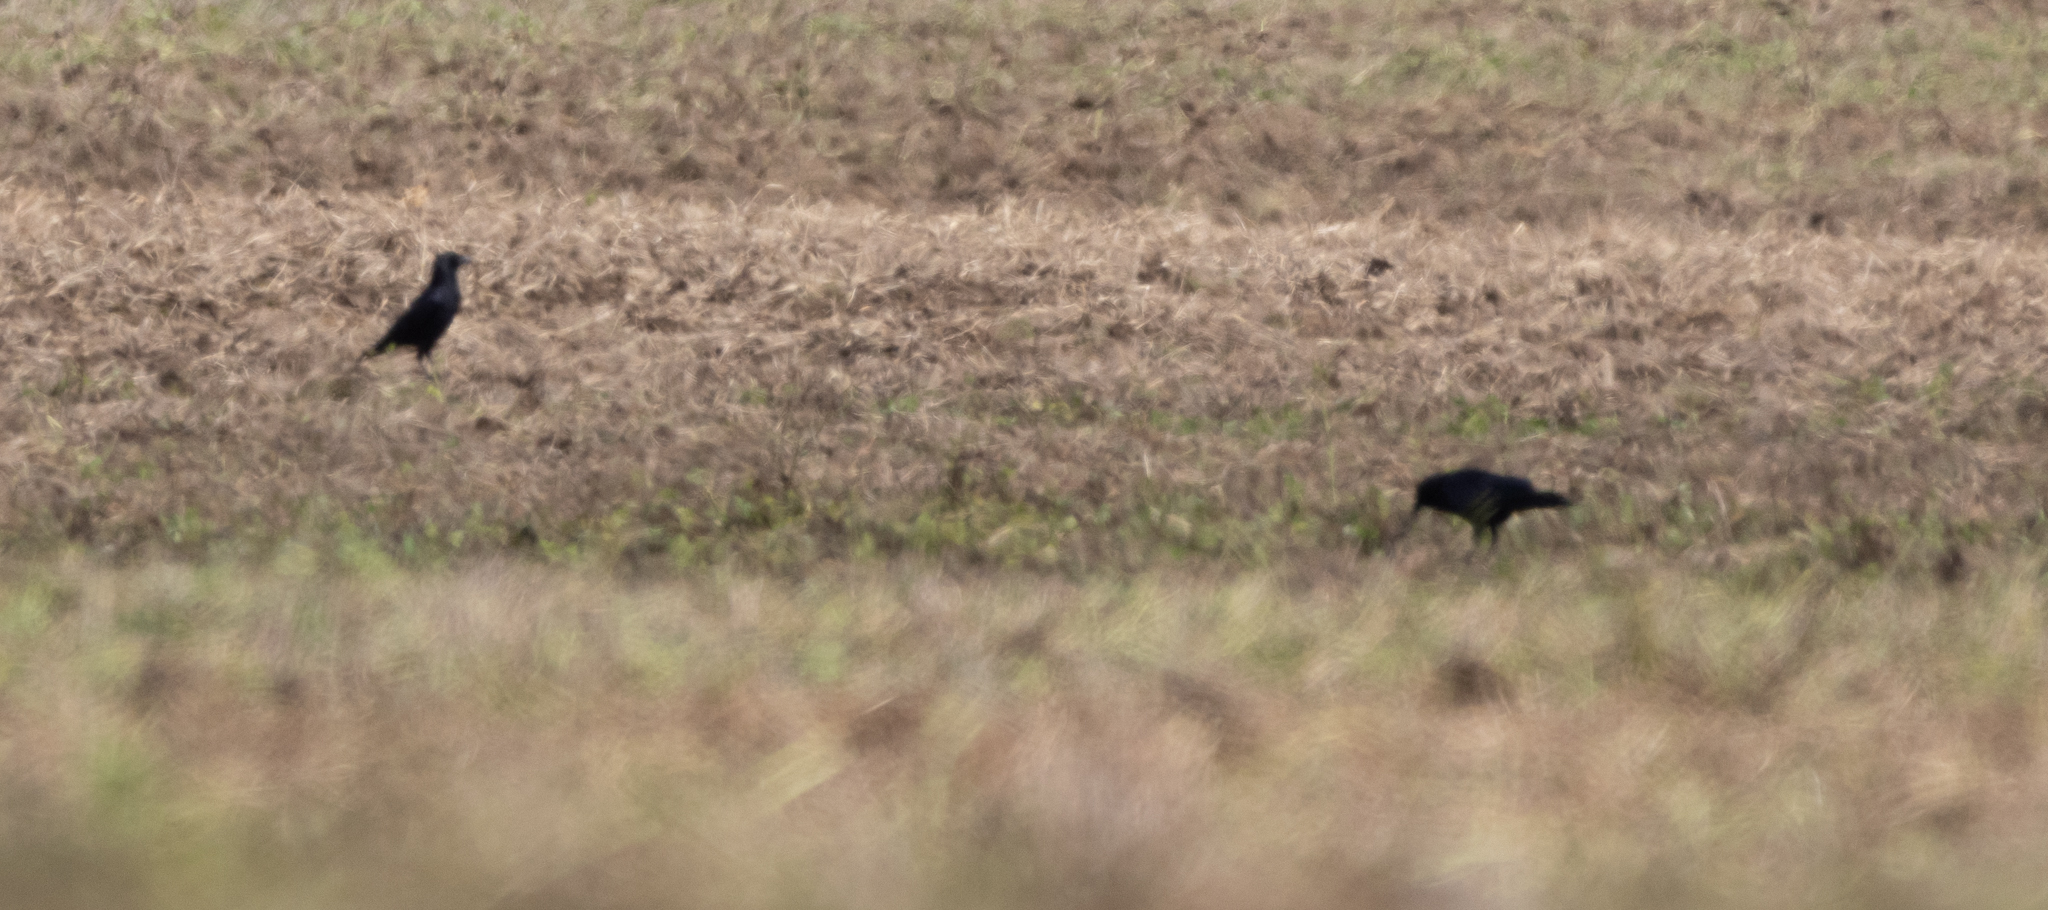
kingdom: Animalia
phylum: Chordata
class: Aves
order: Passeriformes
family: Corvidae
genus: Corvus
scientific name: Corvus brachyrhynchos
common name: American crow
